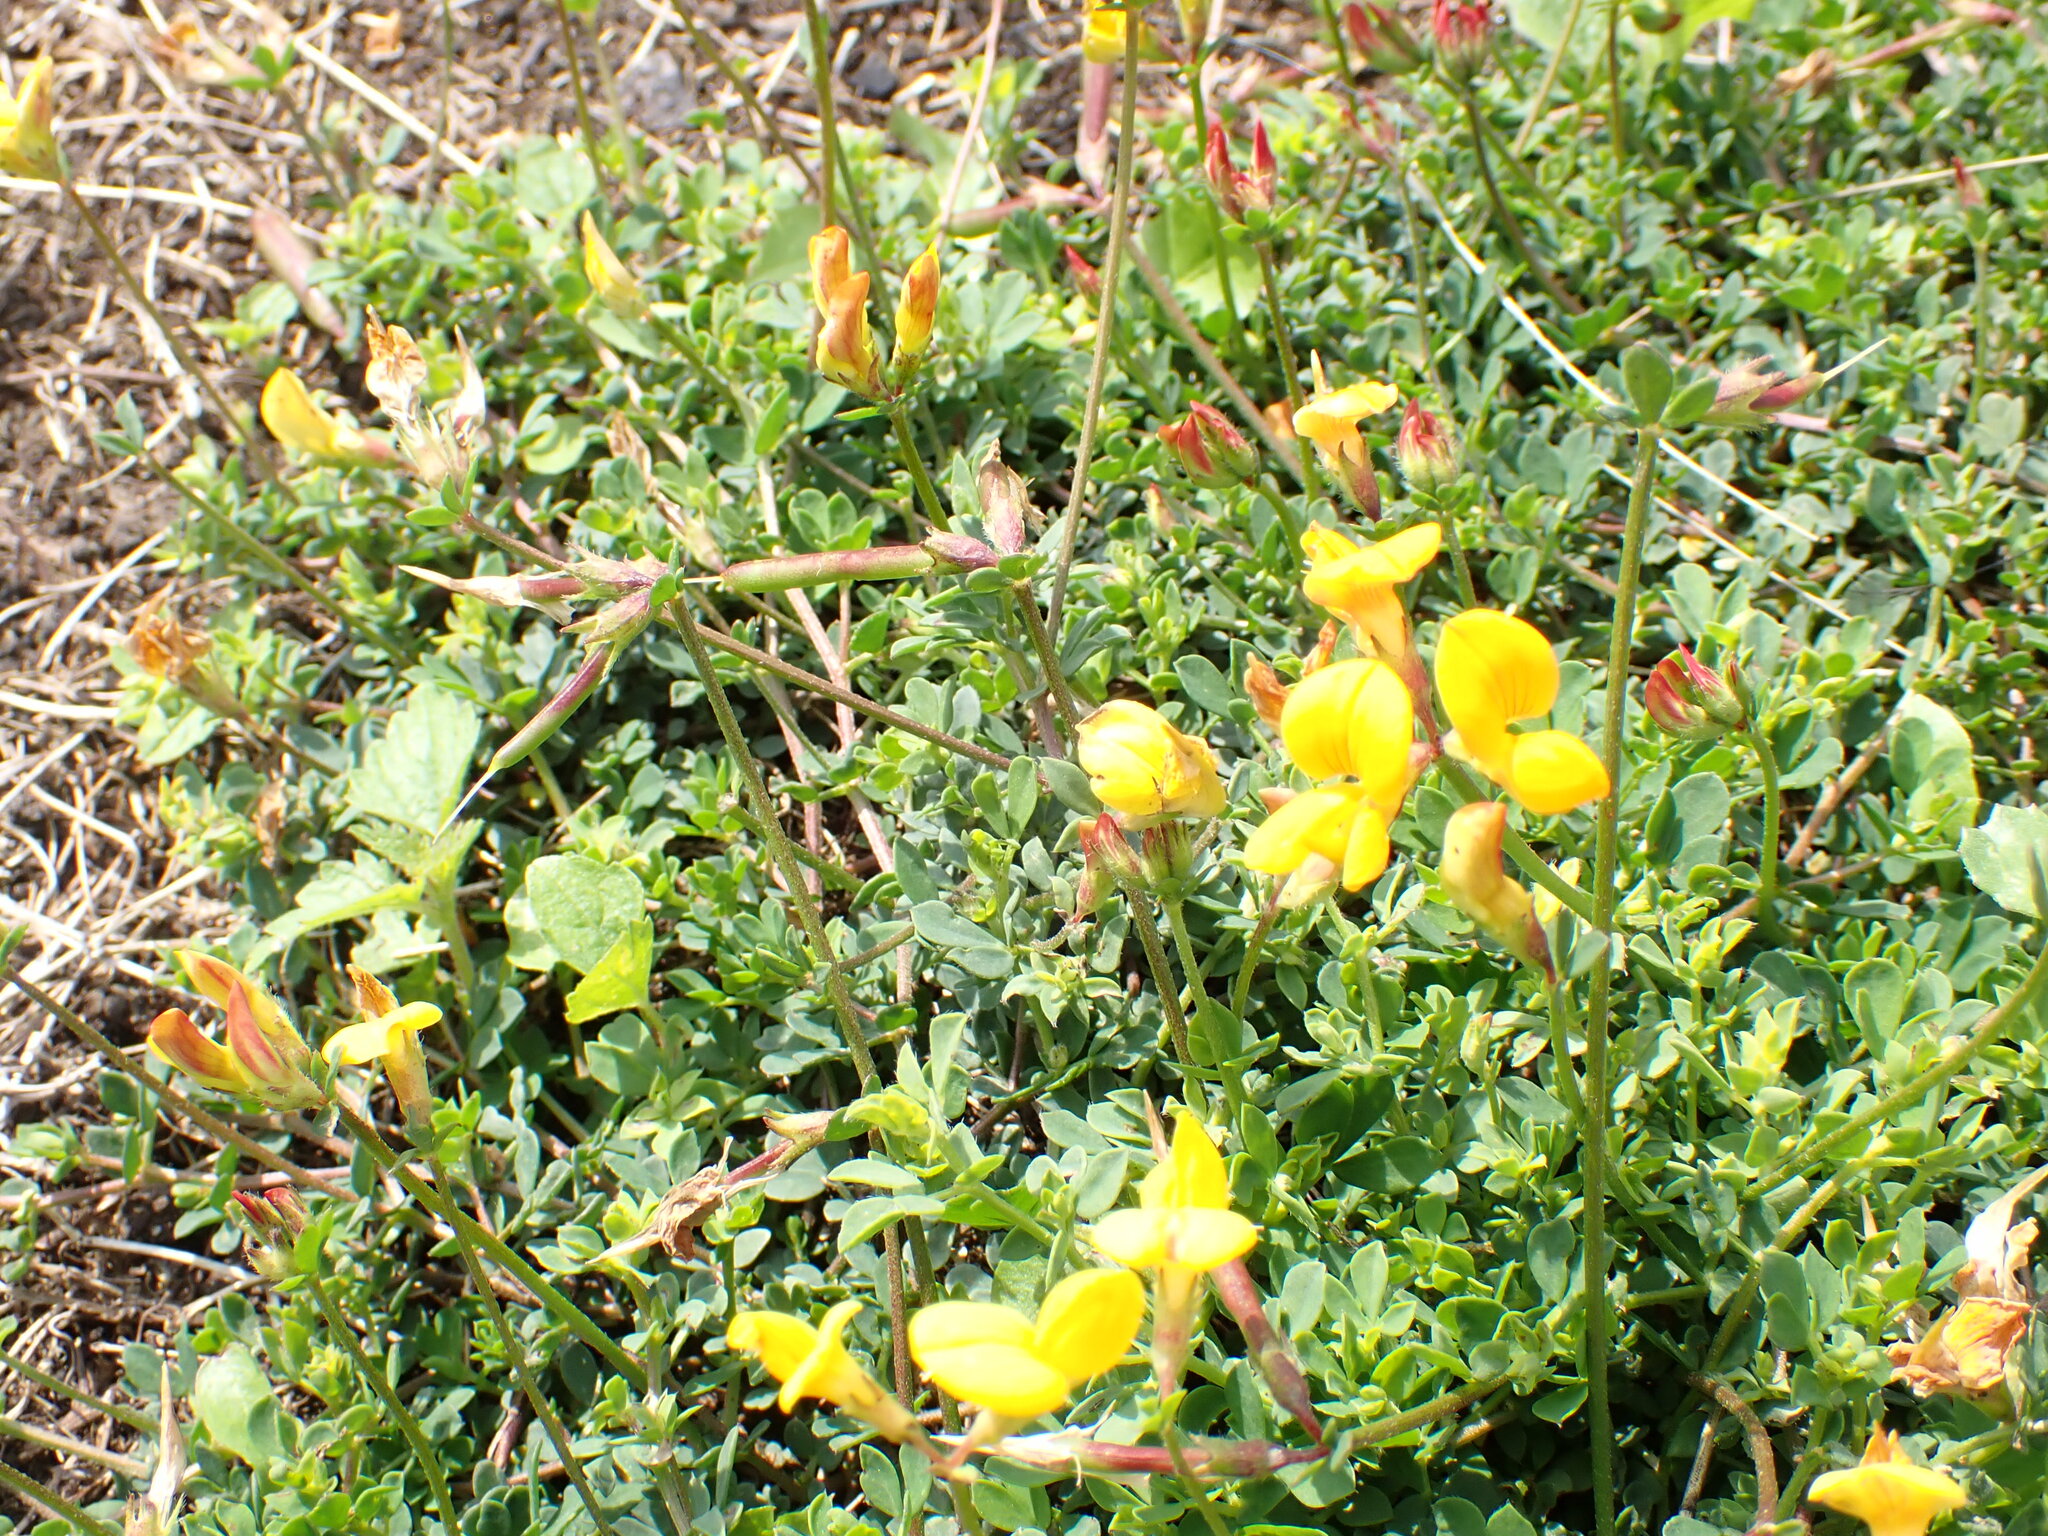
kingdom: Plantae
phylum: Tracheophyta
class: Magnoliopsida
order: Fabales
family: Fabaceae
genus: Lotus
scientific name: Lotus corniculatus
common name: Common bird's-foot-trefoil
